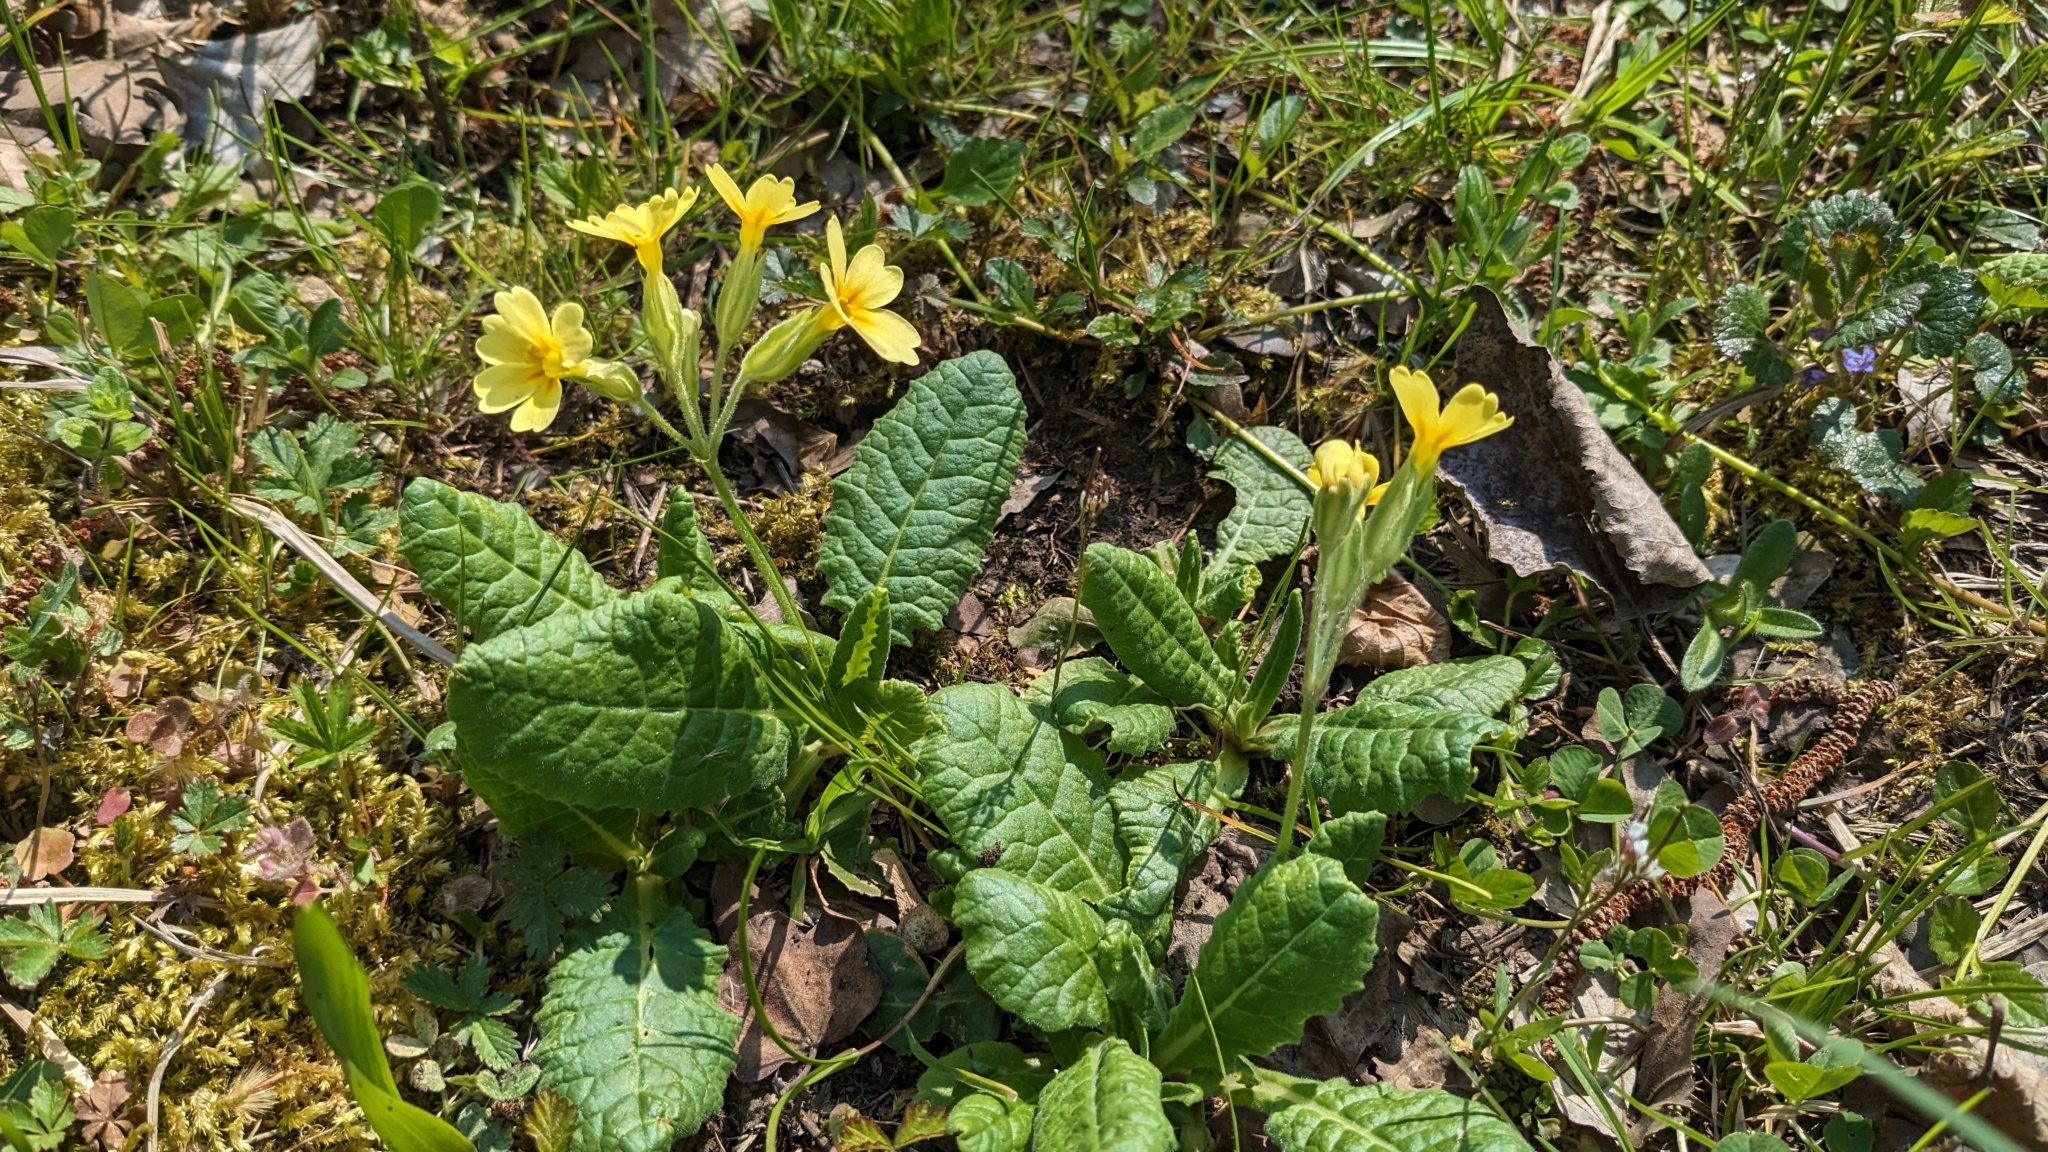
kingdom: Plantae
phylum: Tracheophyta
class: Magnoliopsida
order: Ericales
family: Primulaceae
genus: Primula
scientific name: Primula elatior
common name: Oxlip
